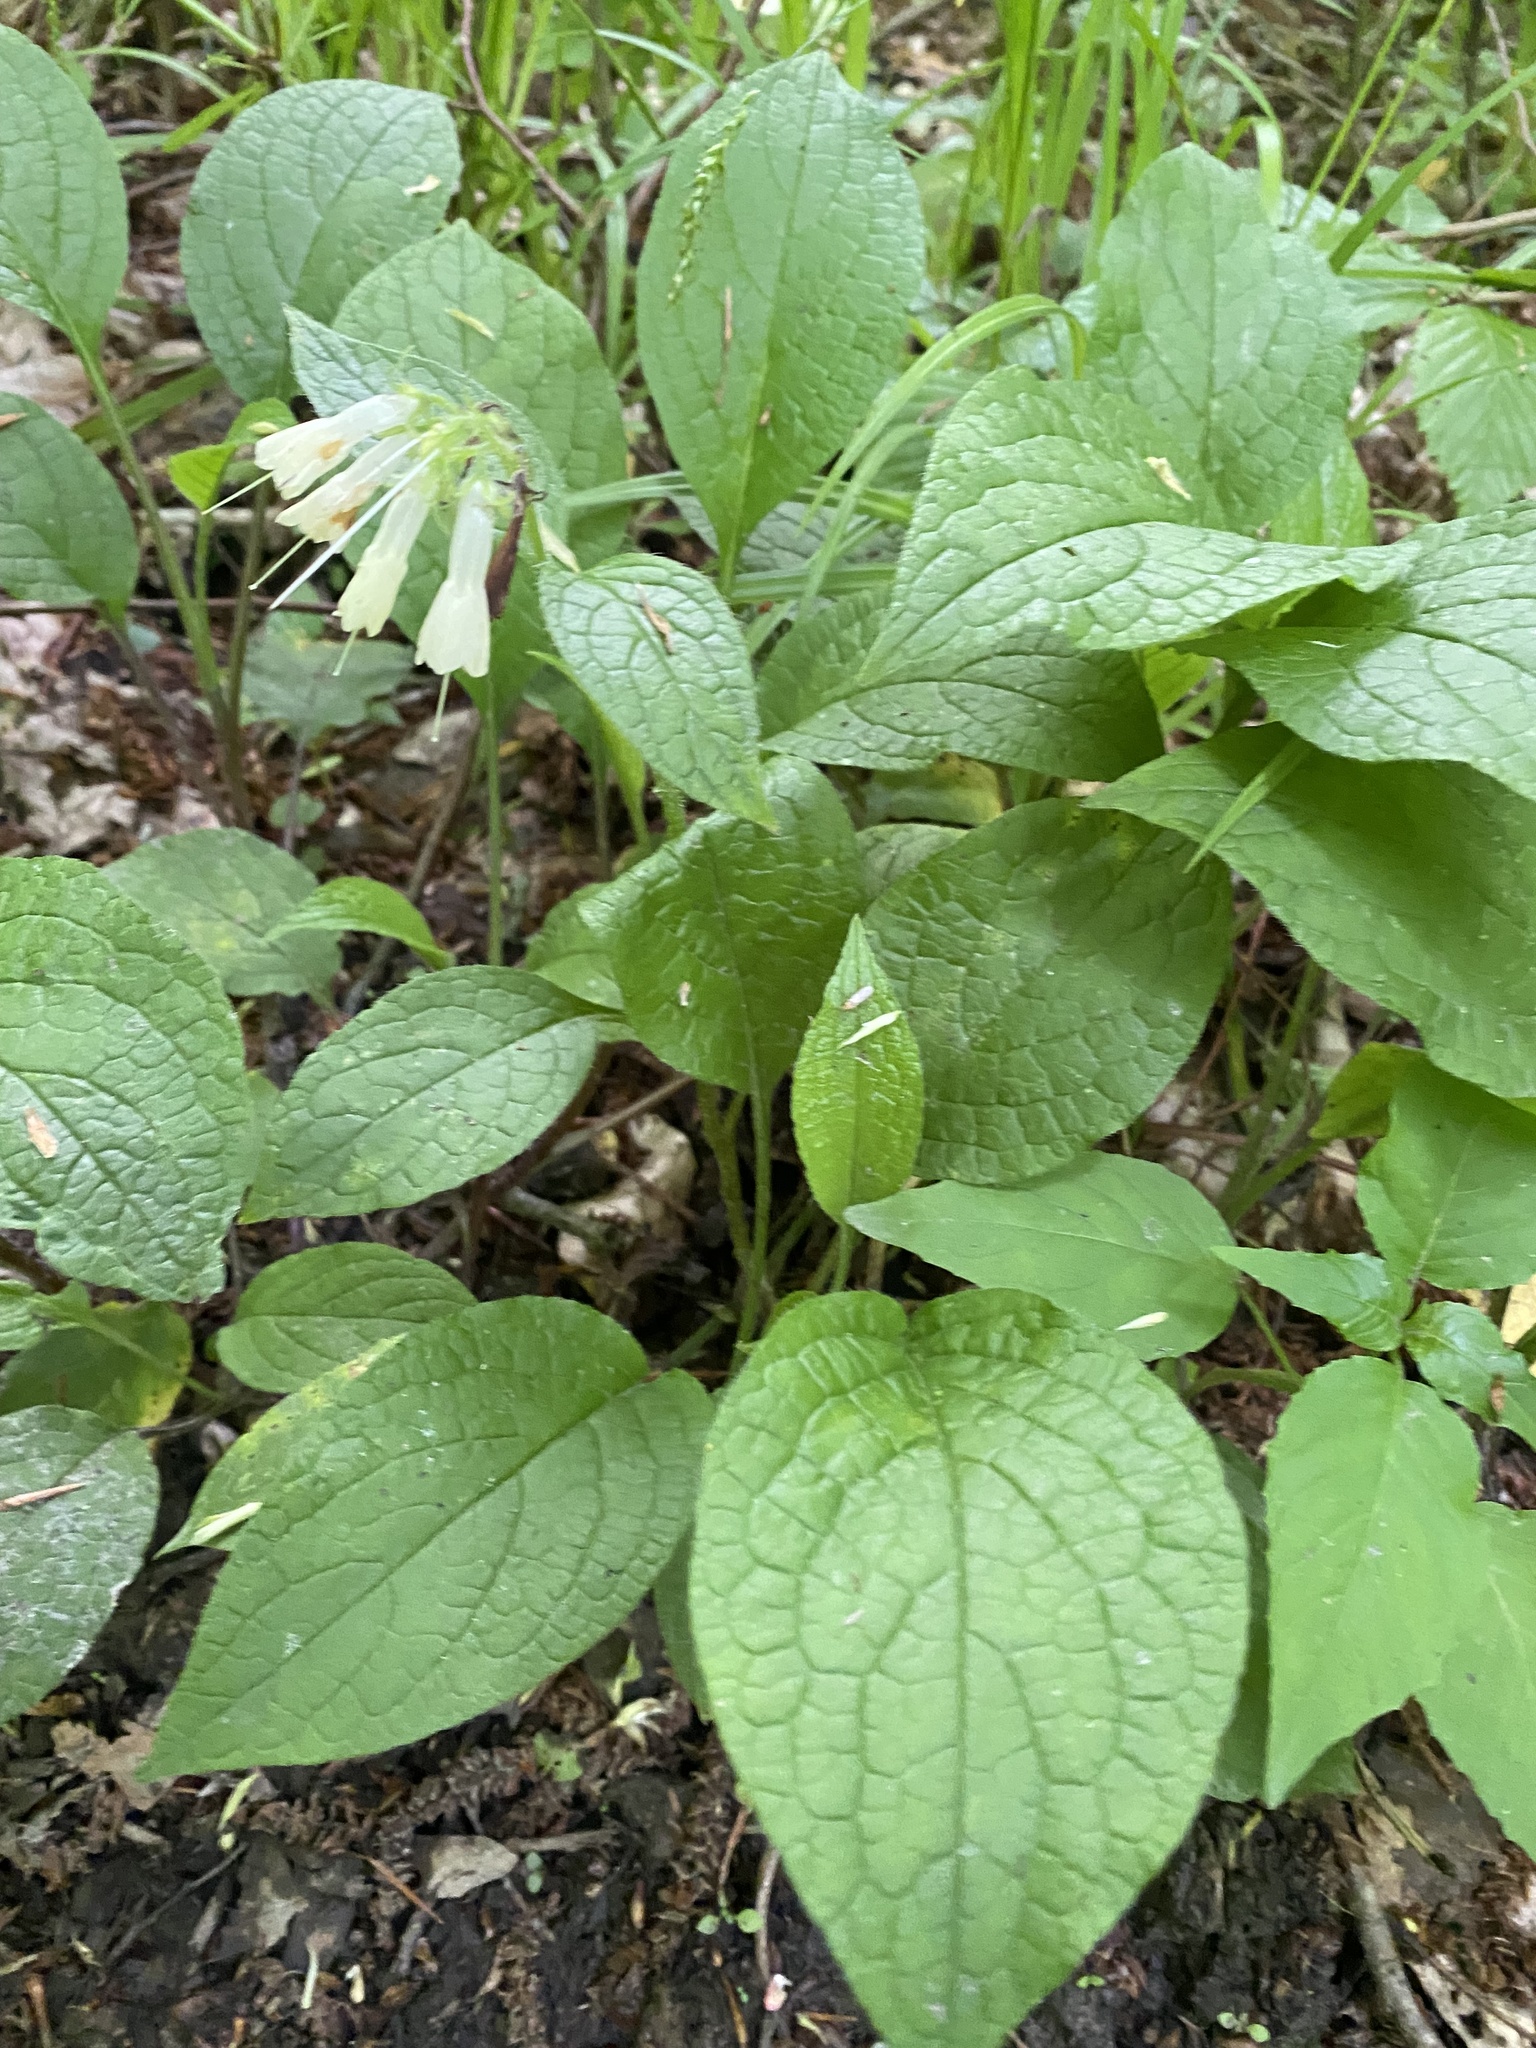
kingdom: Plantae
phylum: Tracheophyta
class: Magnoliopsida
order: Boraginales
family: Boraginaceae
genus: Symphytum
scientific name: Symphytum grandiflorum
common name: Creeping comfrey
